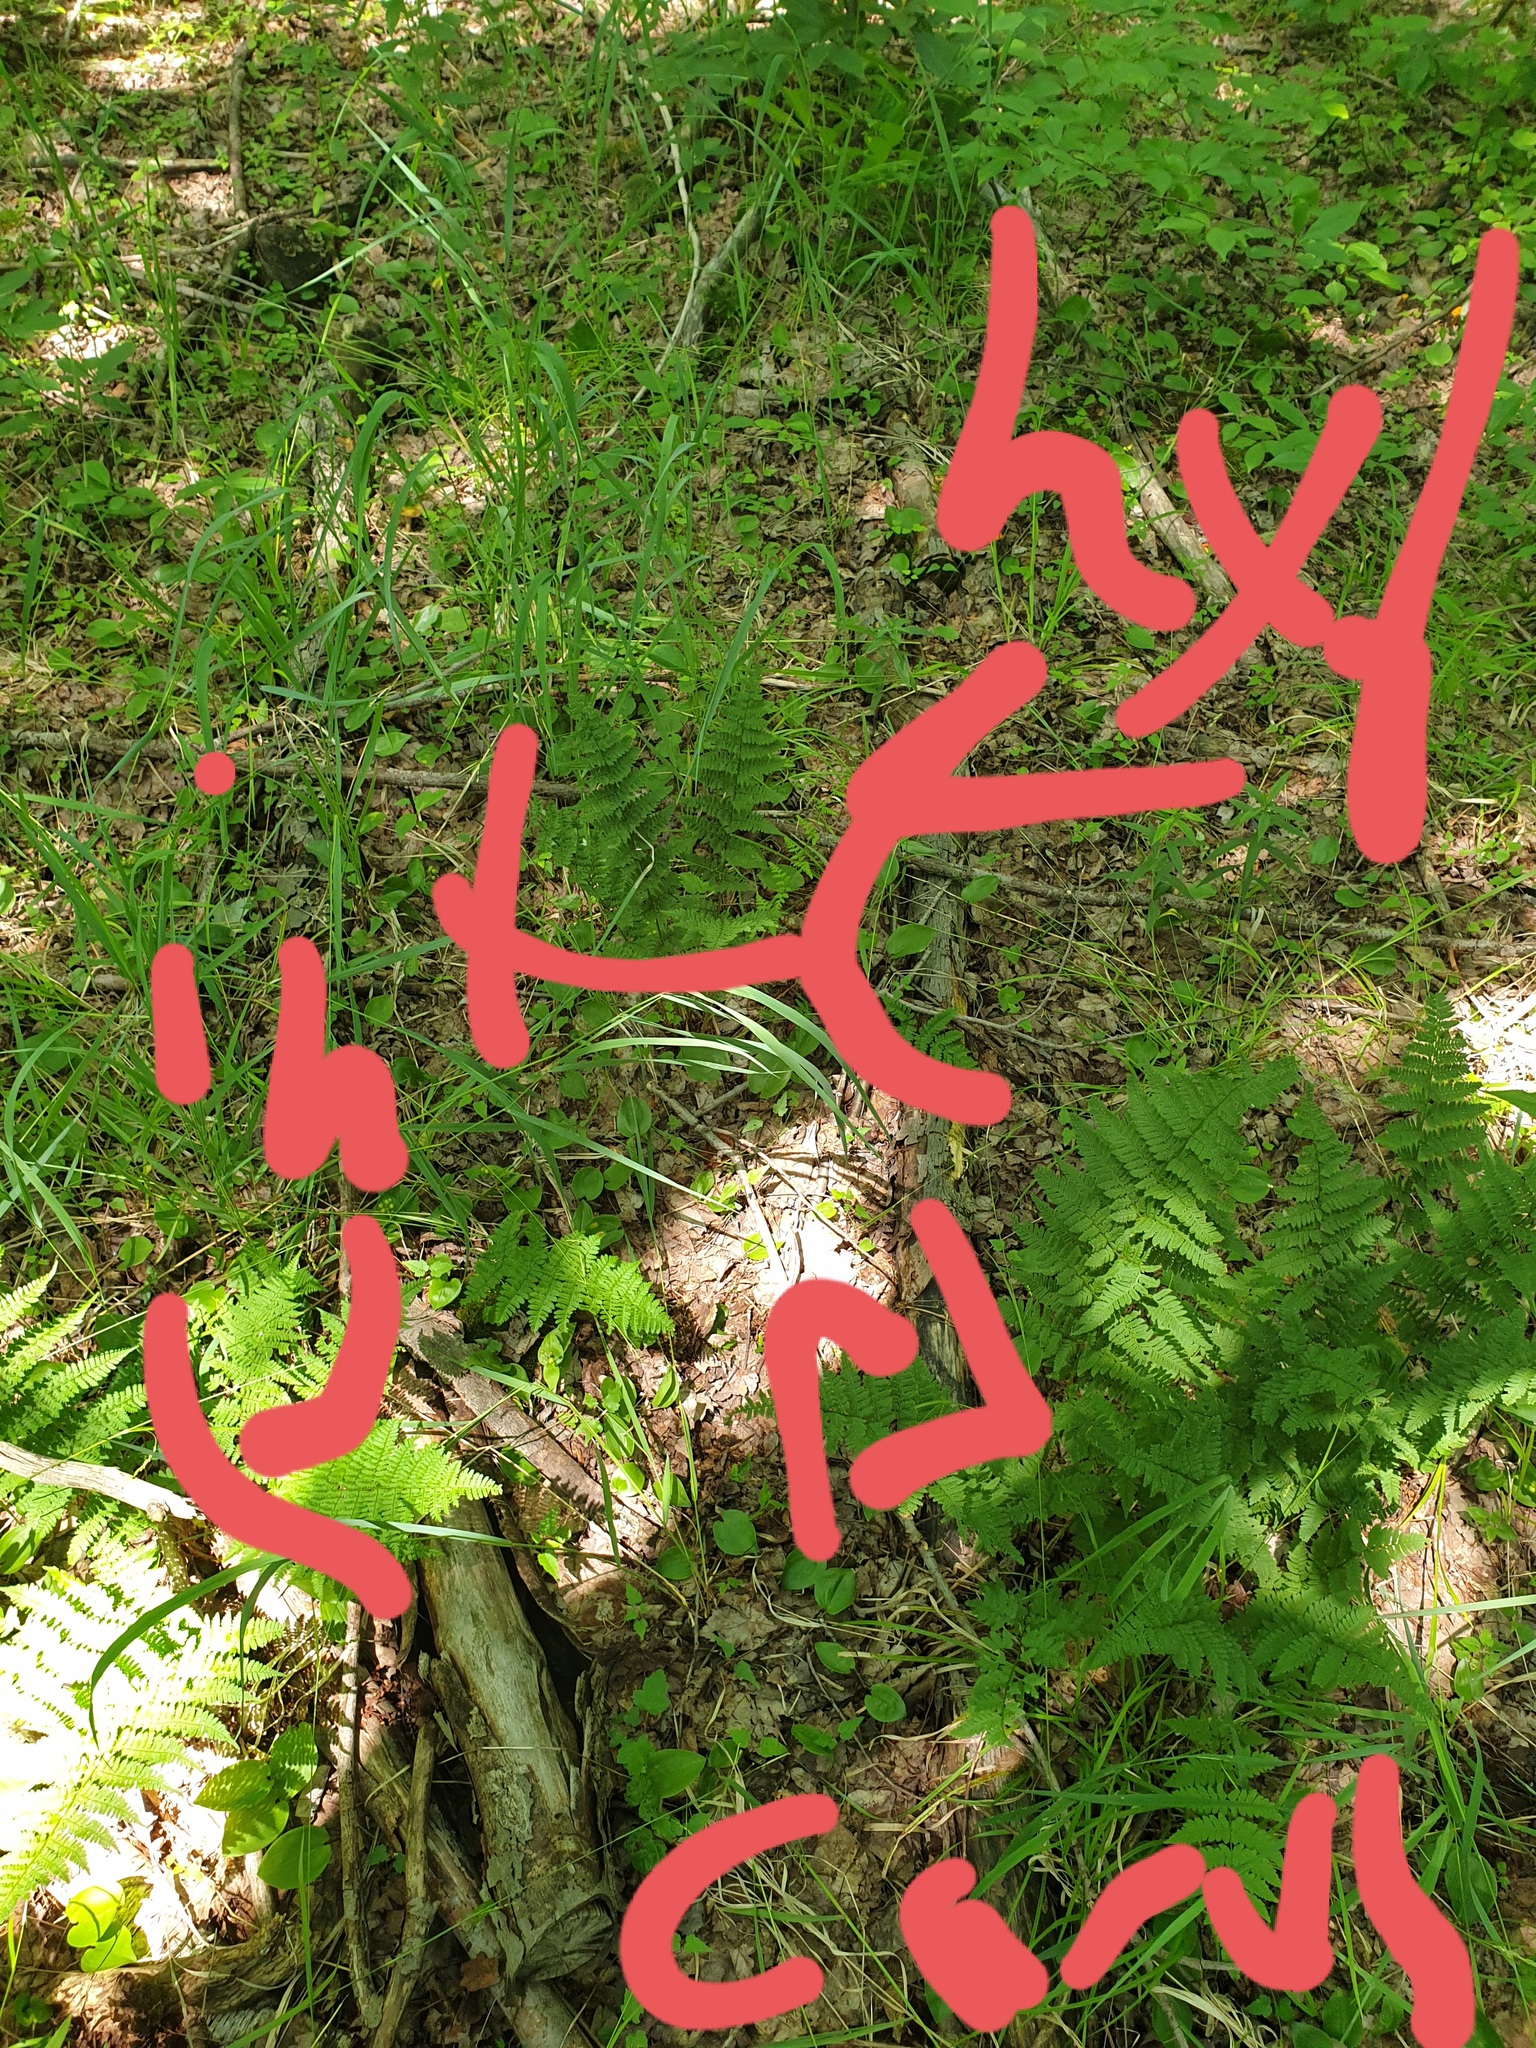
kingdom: Plantae
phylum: Tracheophyta
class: Polypodiopsida
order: Polypodiales
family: Dryopteridaceae
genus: Dryopteris
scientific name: Dryopteris triploidea
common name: Fruitful wood fern
